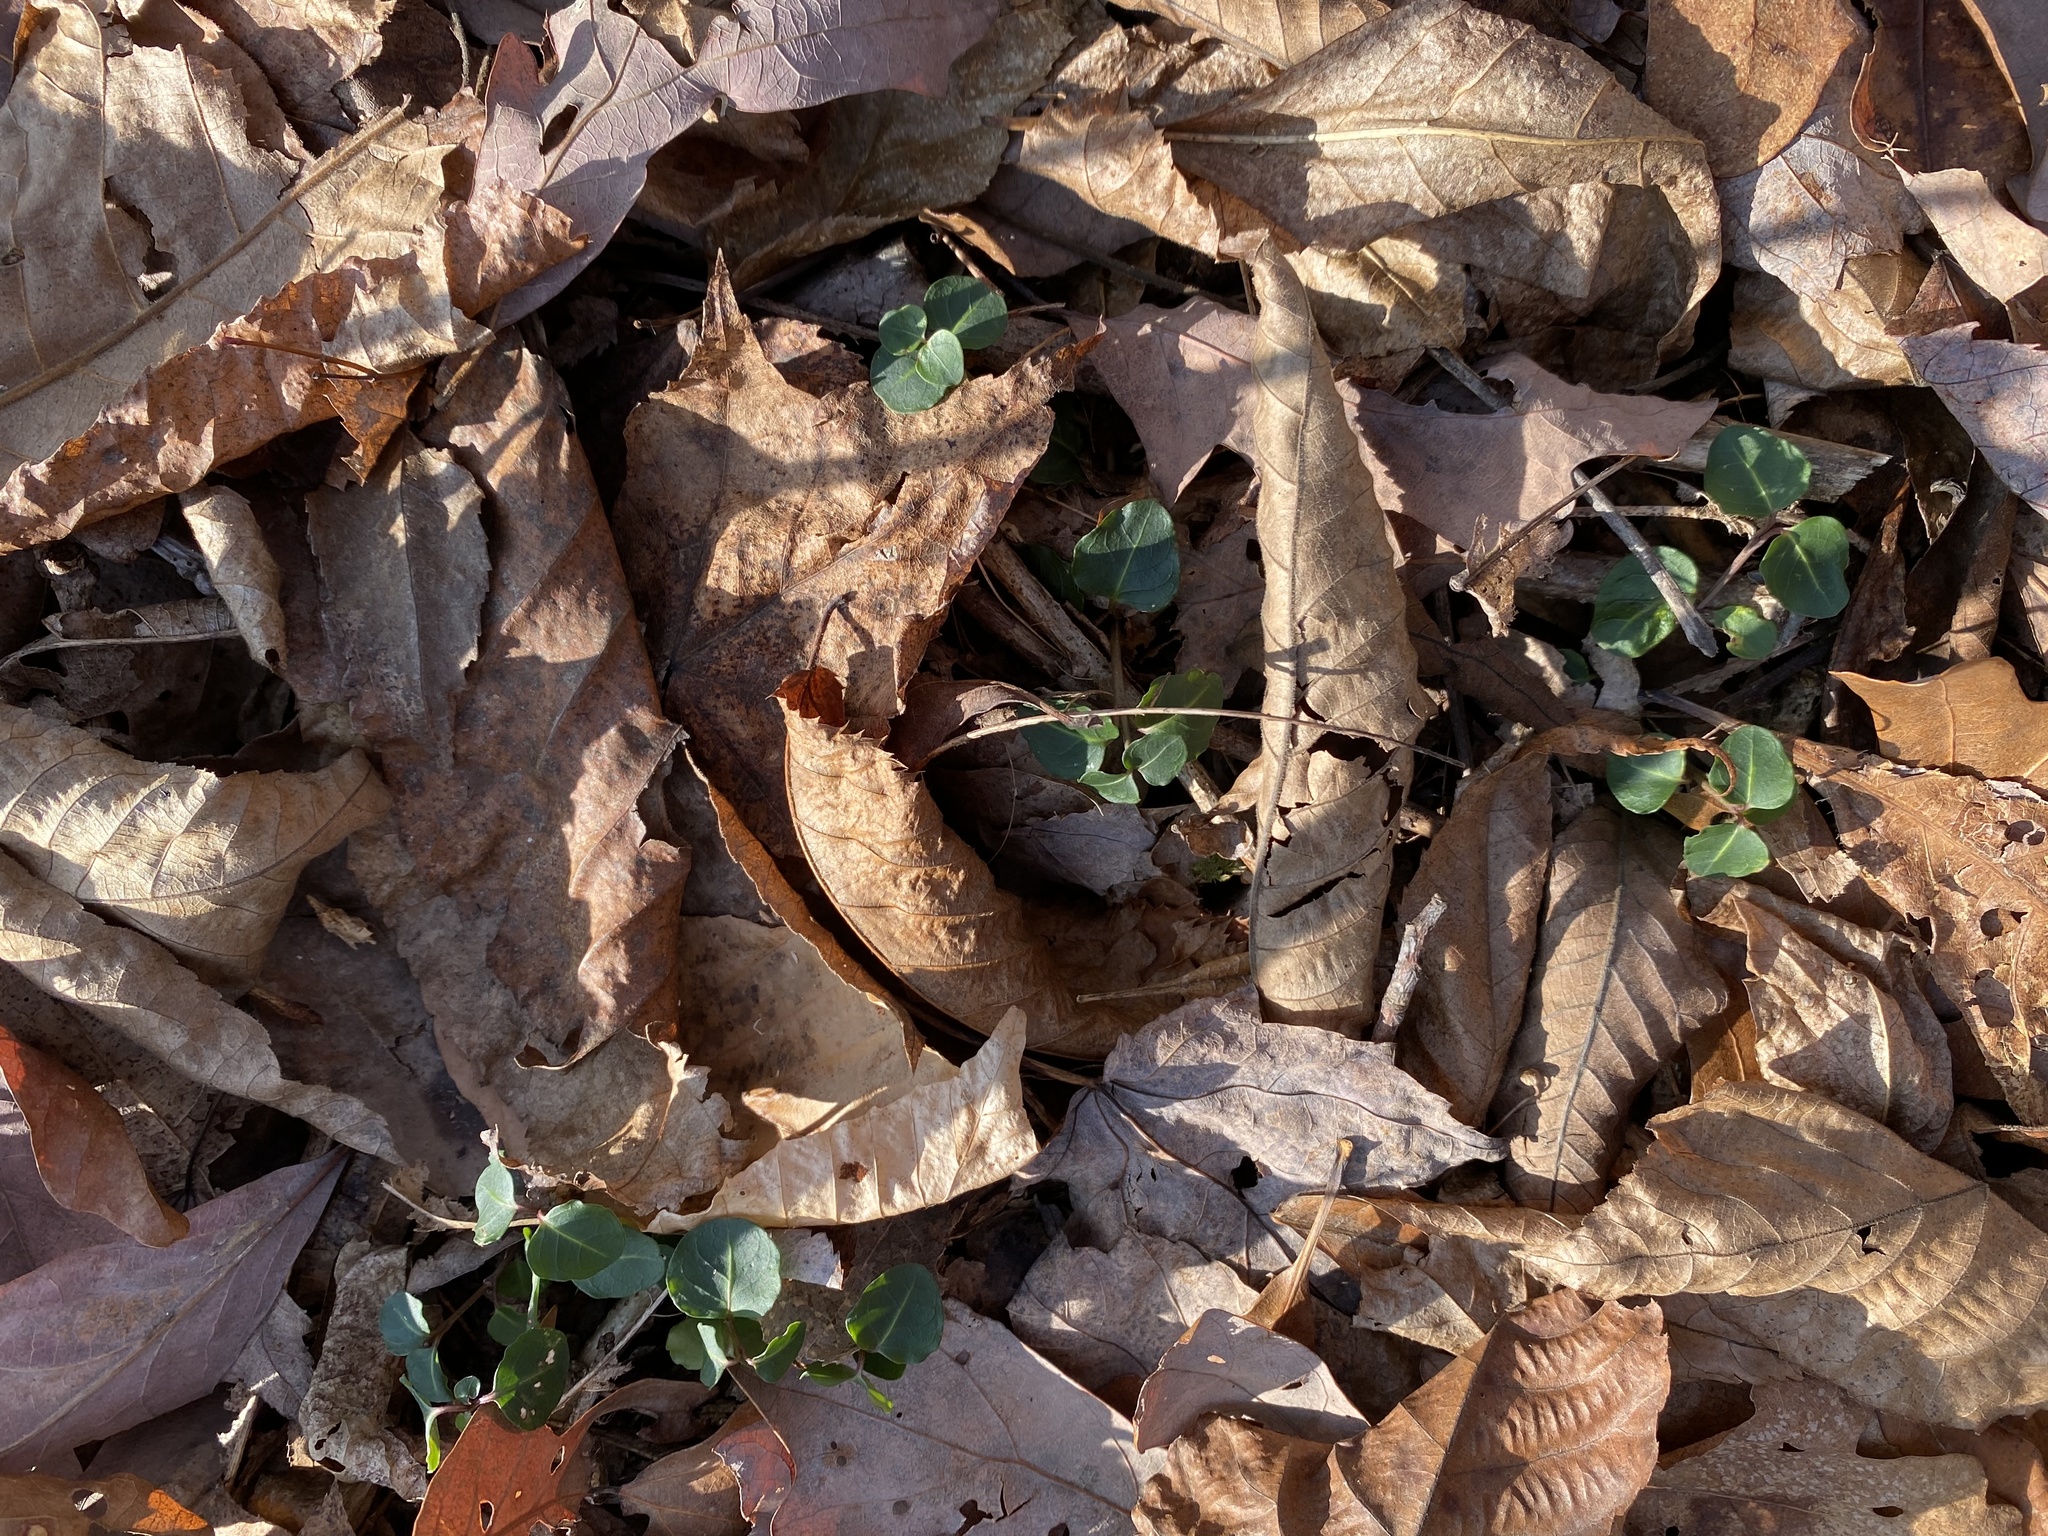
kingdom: Plantae
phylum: Tracheophyta
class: Magnoliopsida
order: Gentianales
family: Rubiaceae
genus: Mitchella
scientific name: Mitchella repens
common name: Partridge-berry
